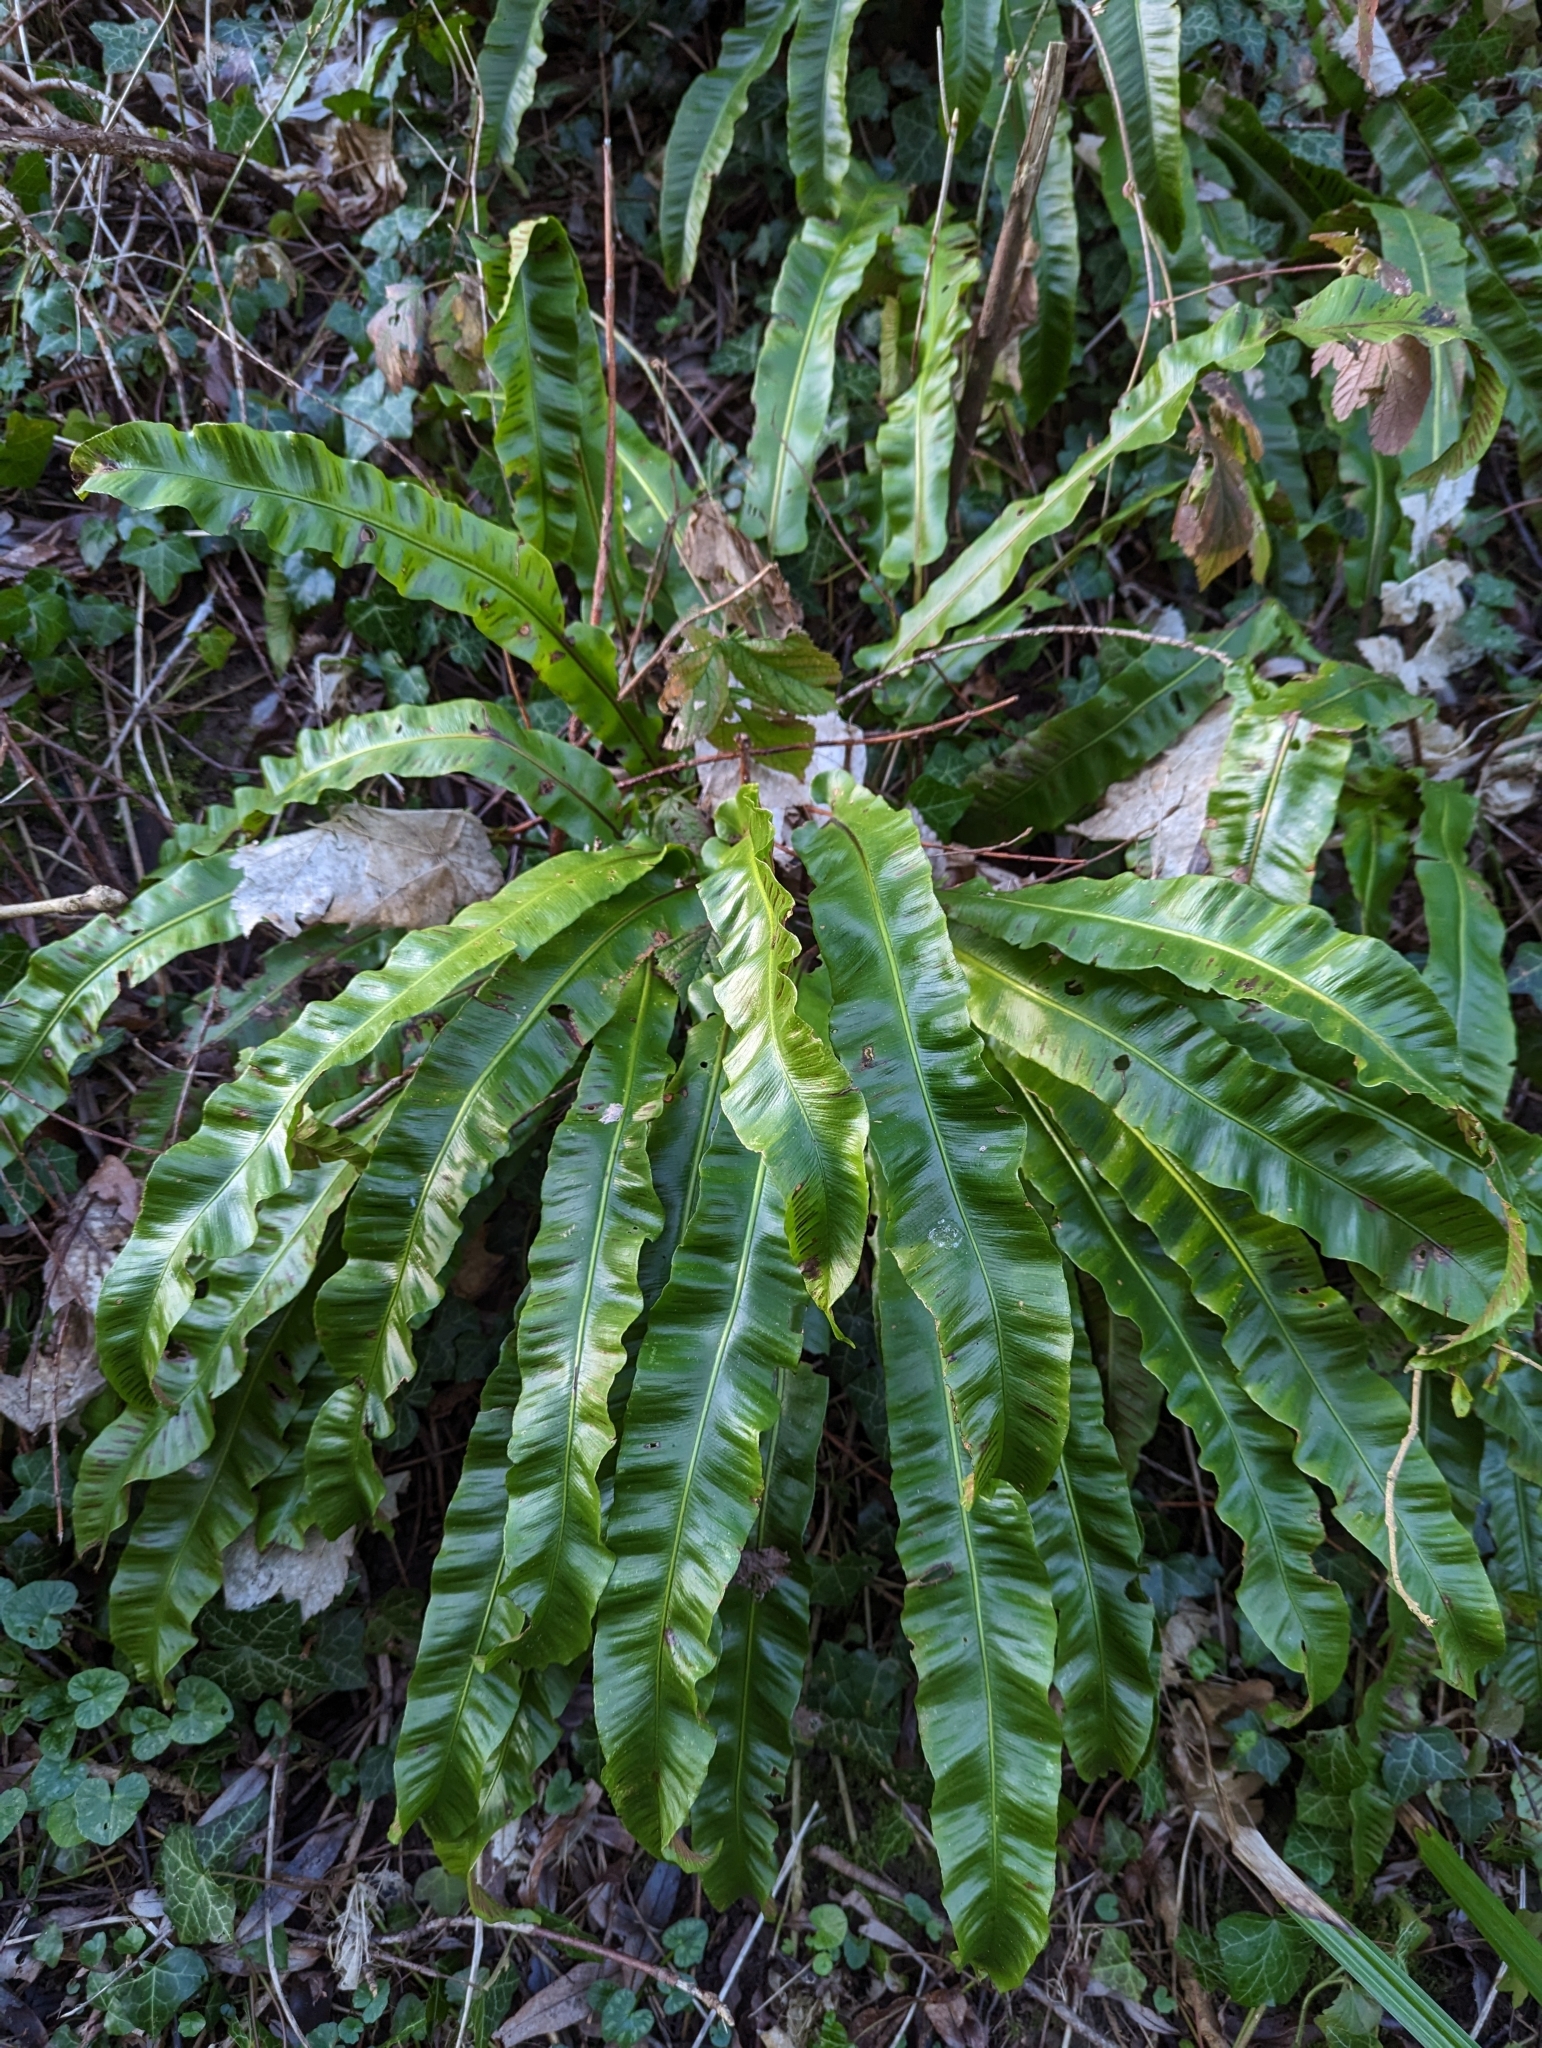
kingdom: Plantae
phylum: Tracheophyta
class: Polypodiopsida
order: Polypodiales
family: Aspleniaceae
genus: Asplenium
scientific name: Asplenium scolopendrium
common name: Hart's-tongue fern
